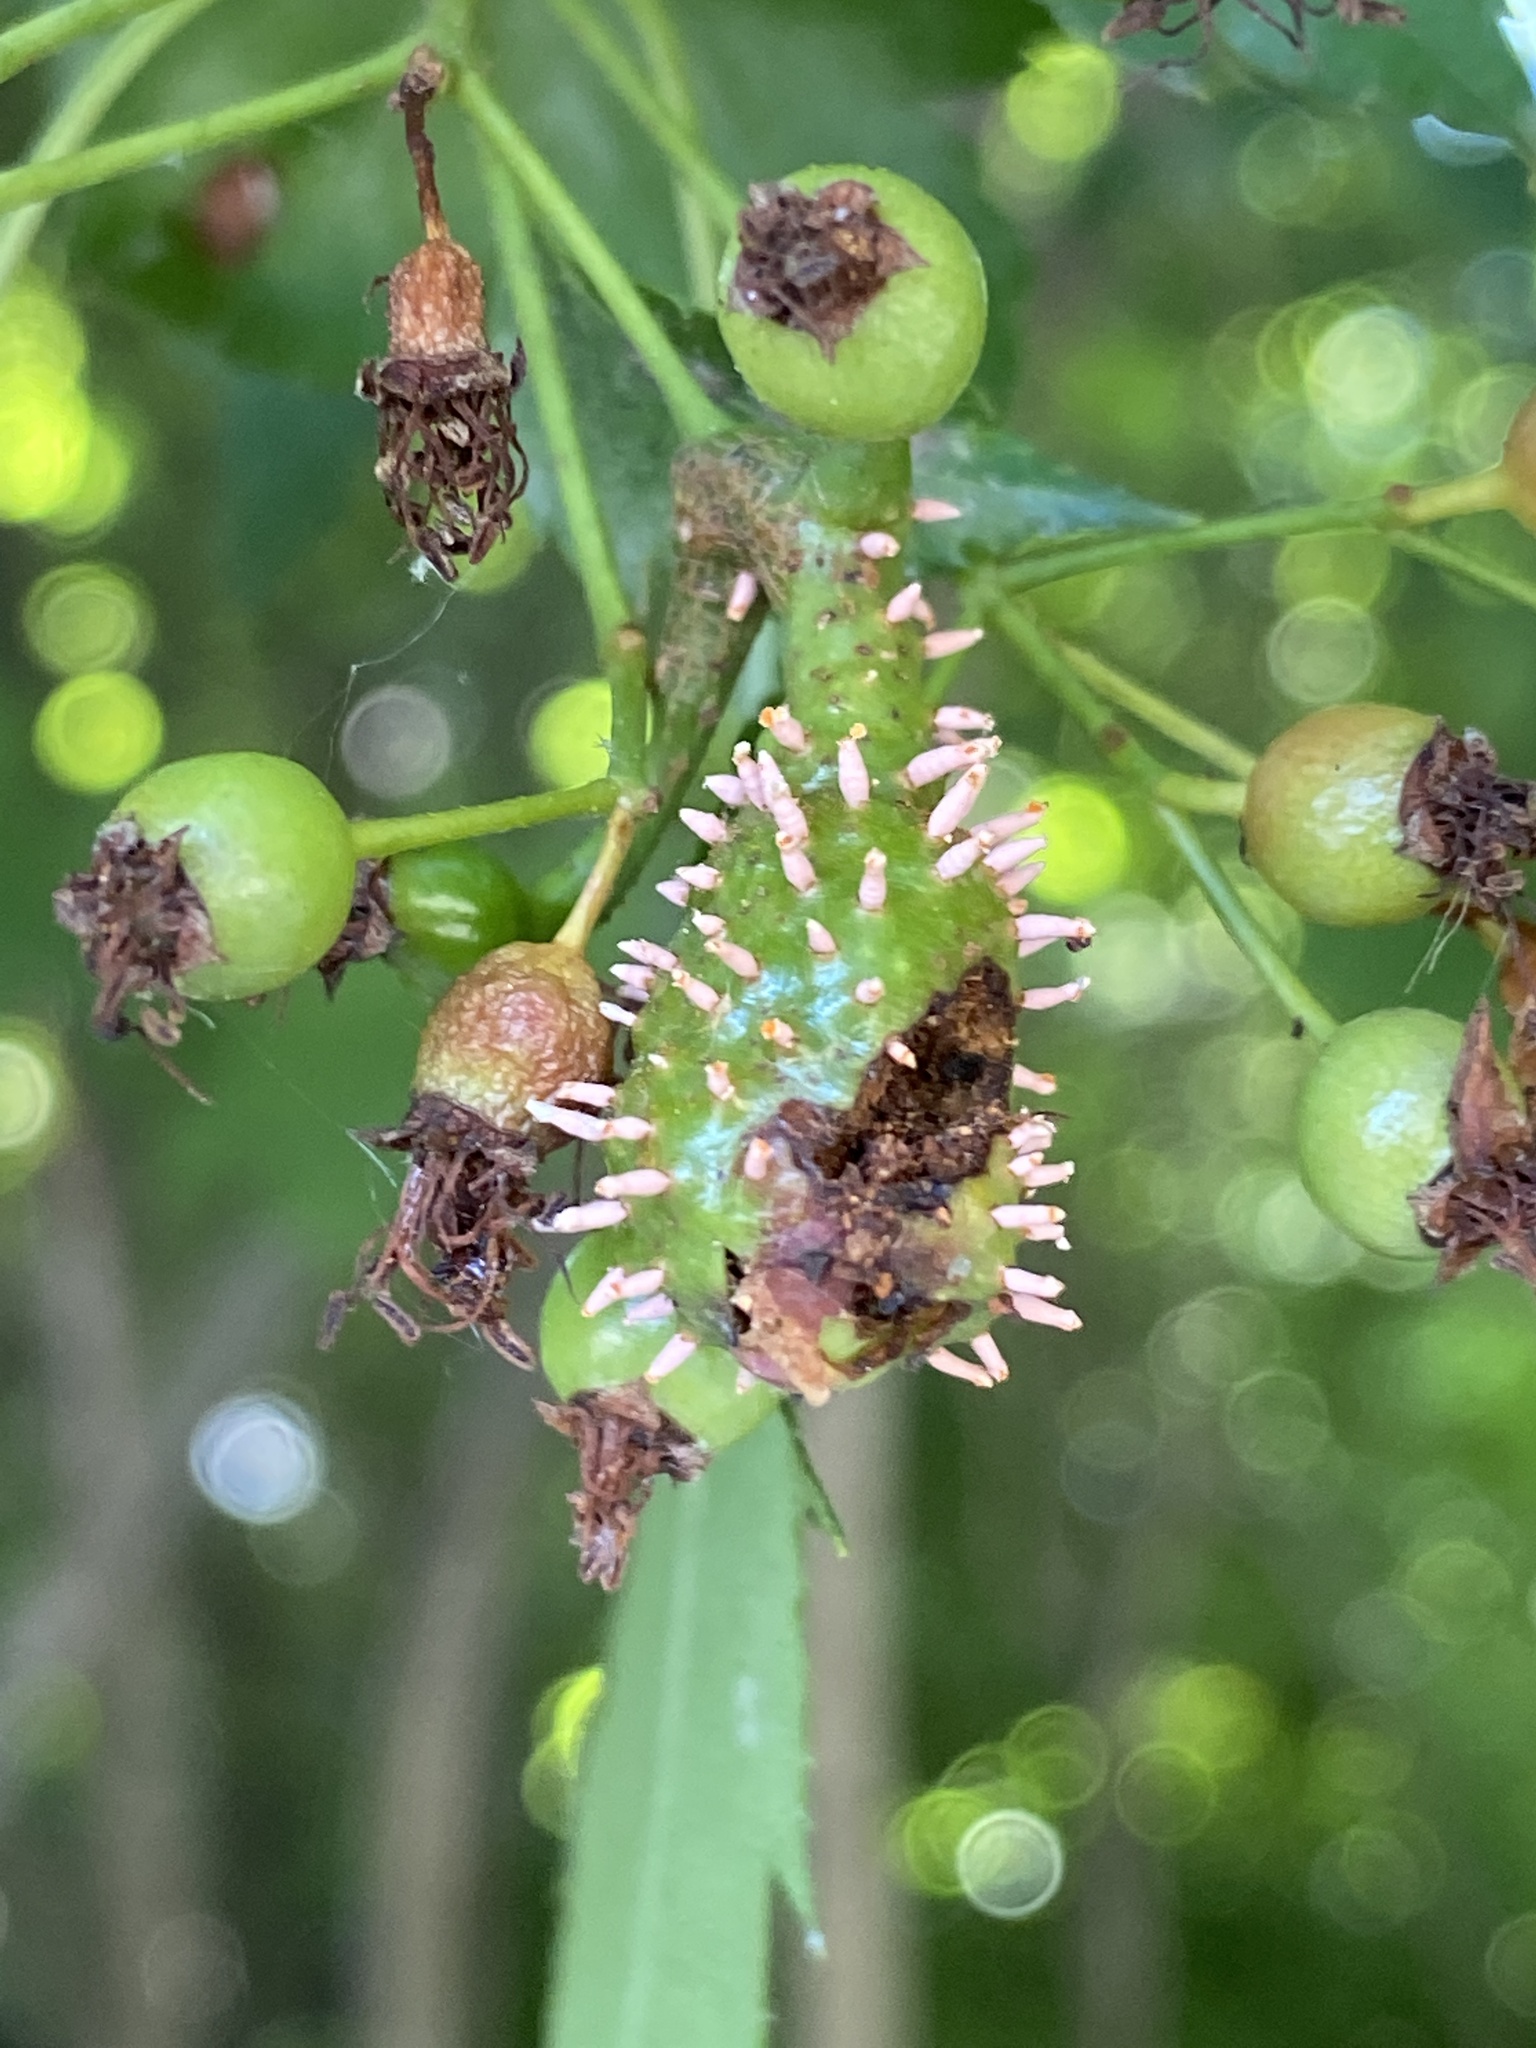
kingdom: Fungi
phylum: Basidiomycota
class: Pucciniomycetes
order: Pucciniales
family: Gymnosporangiaceae
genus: Gymnosporangium
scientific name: Gymnosporangium globosum
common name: Juniper-hawthorn rust
